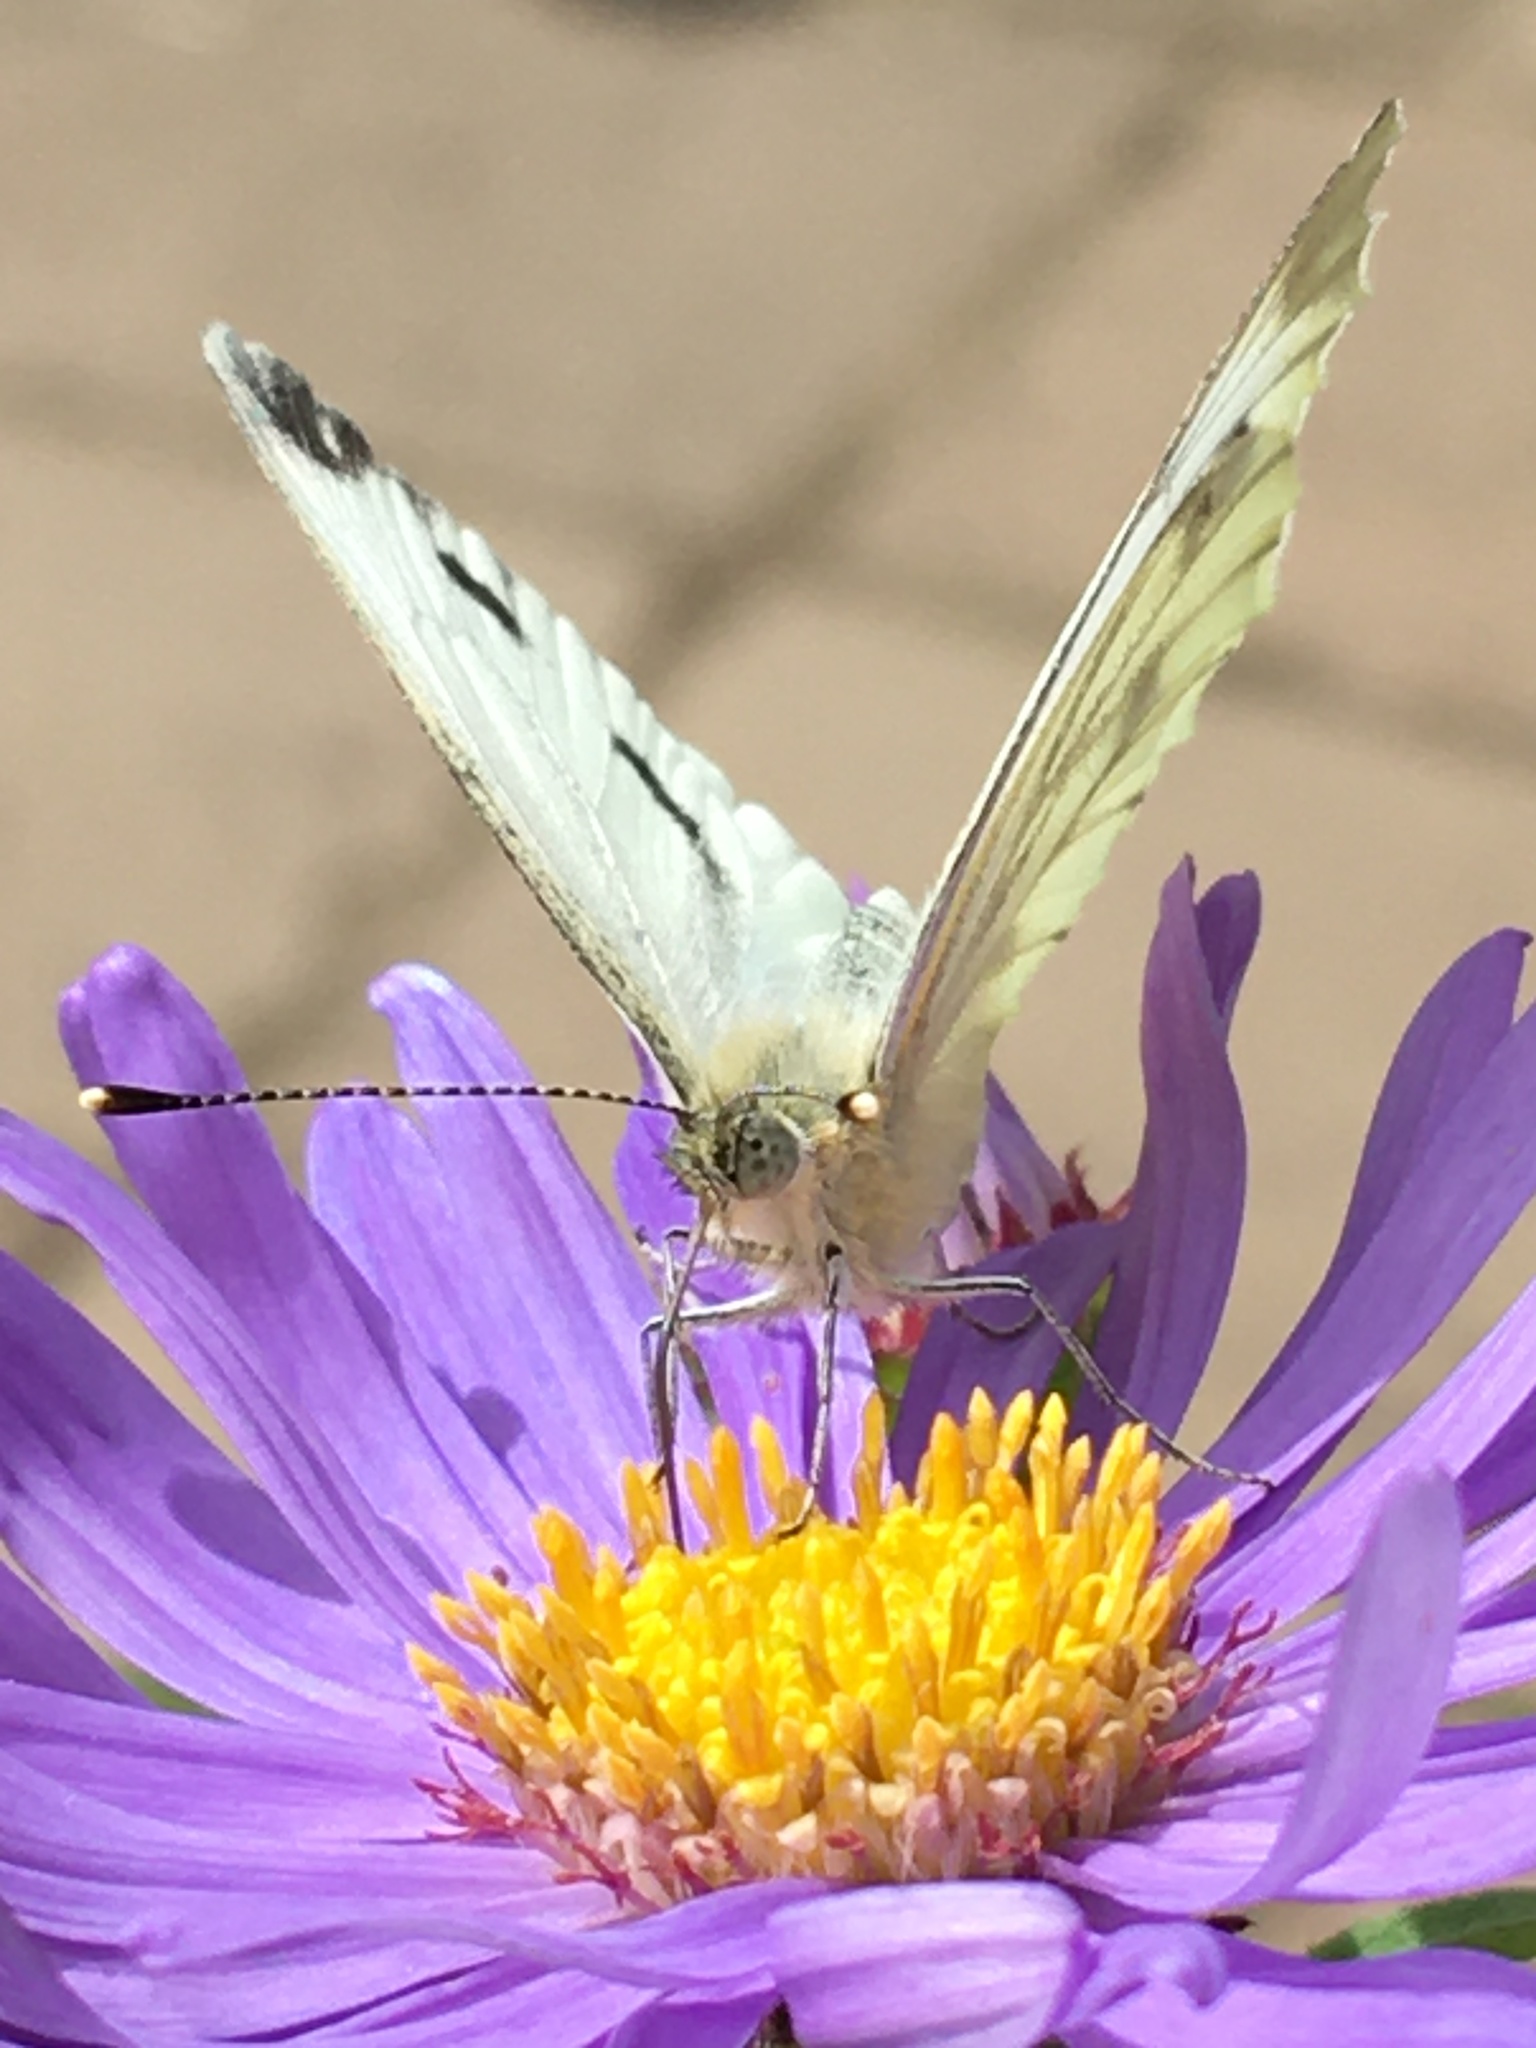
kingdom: Animalia
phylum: Arthropoda
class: Insecta
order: Lepidoptera
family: Pieridae
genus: Pieris
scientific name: Pieris napi
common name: Green-veined white
